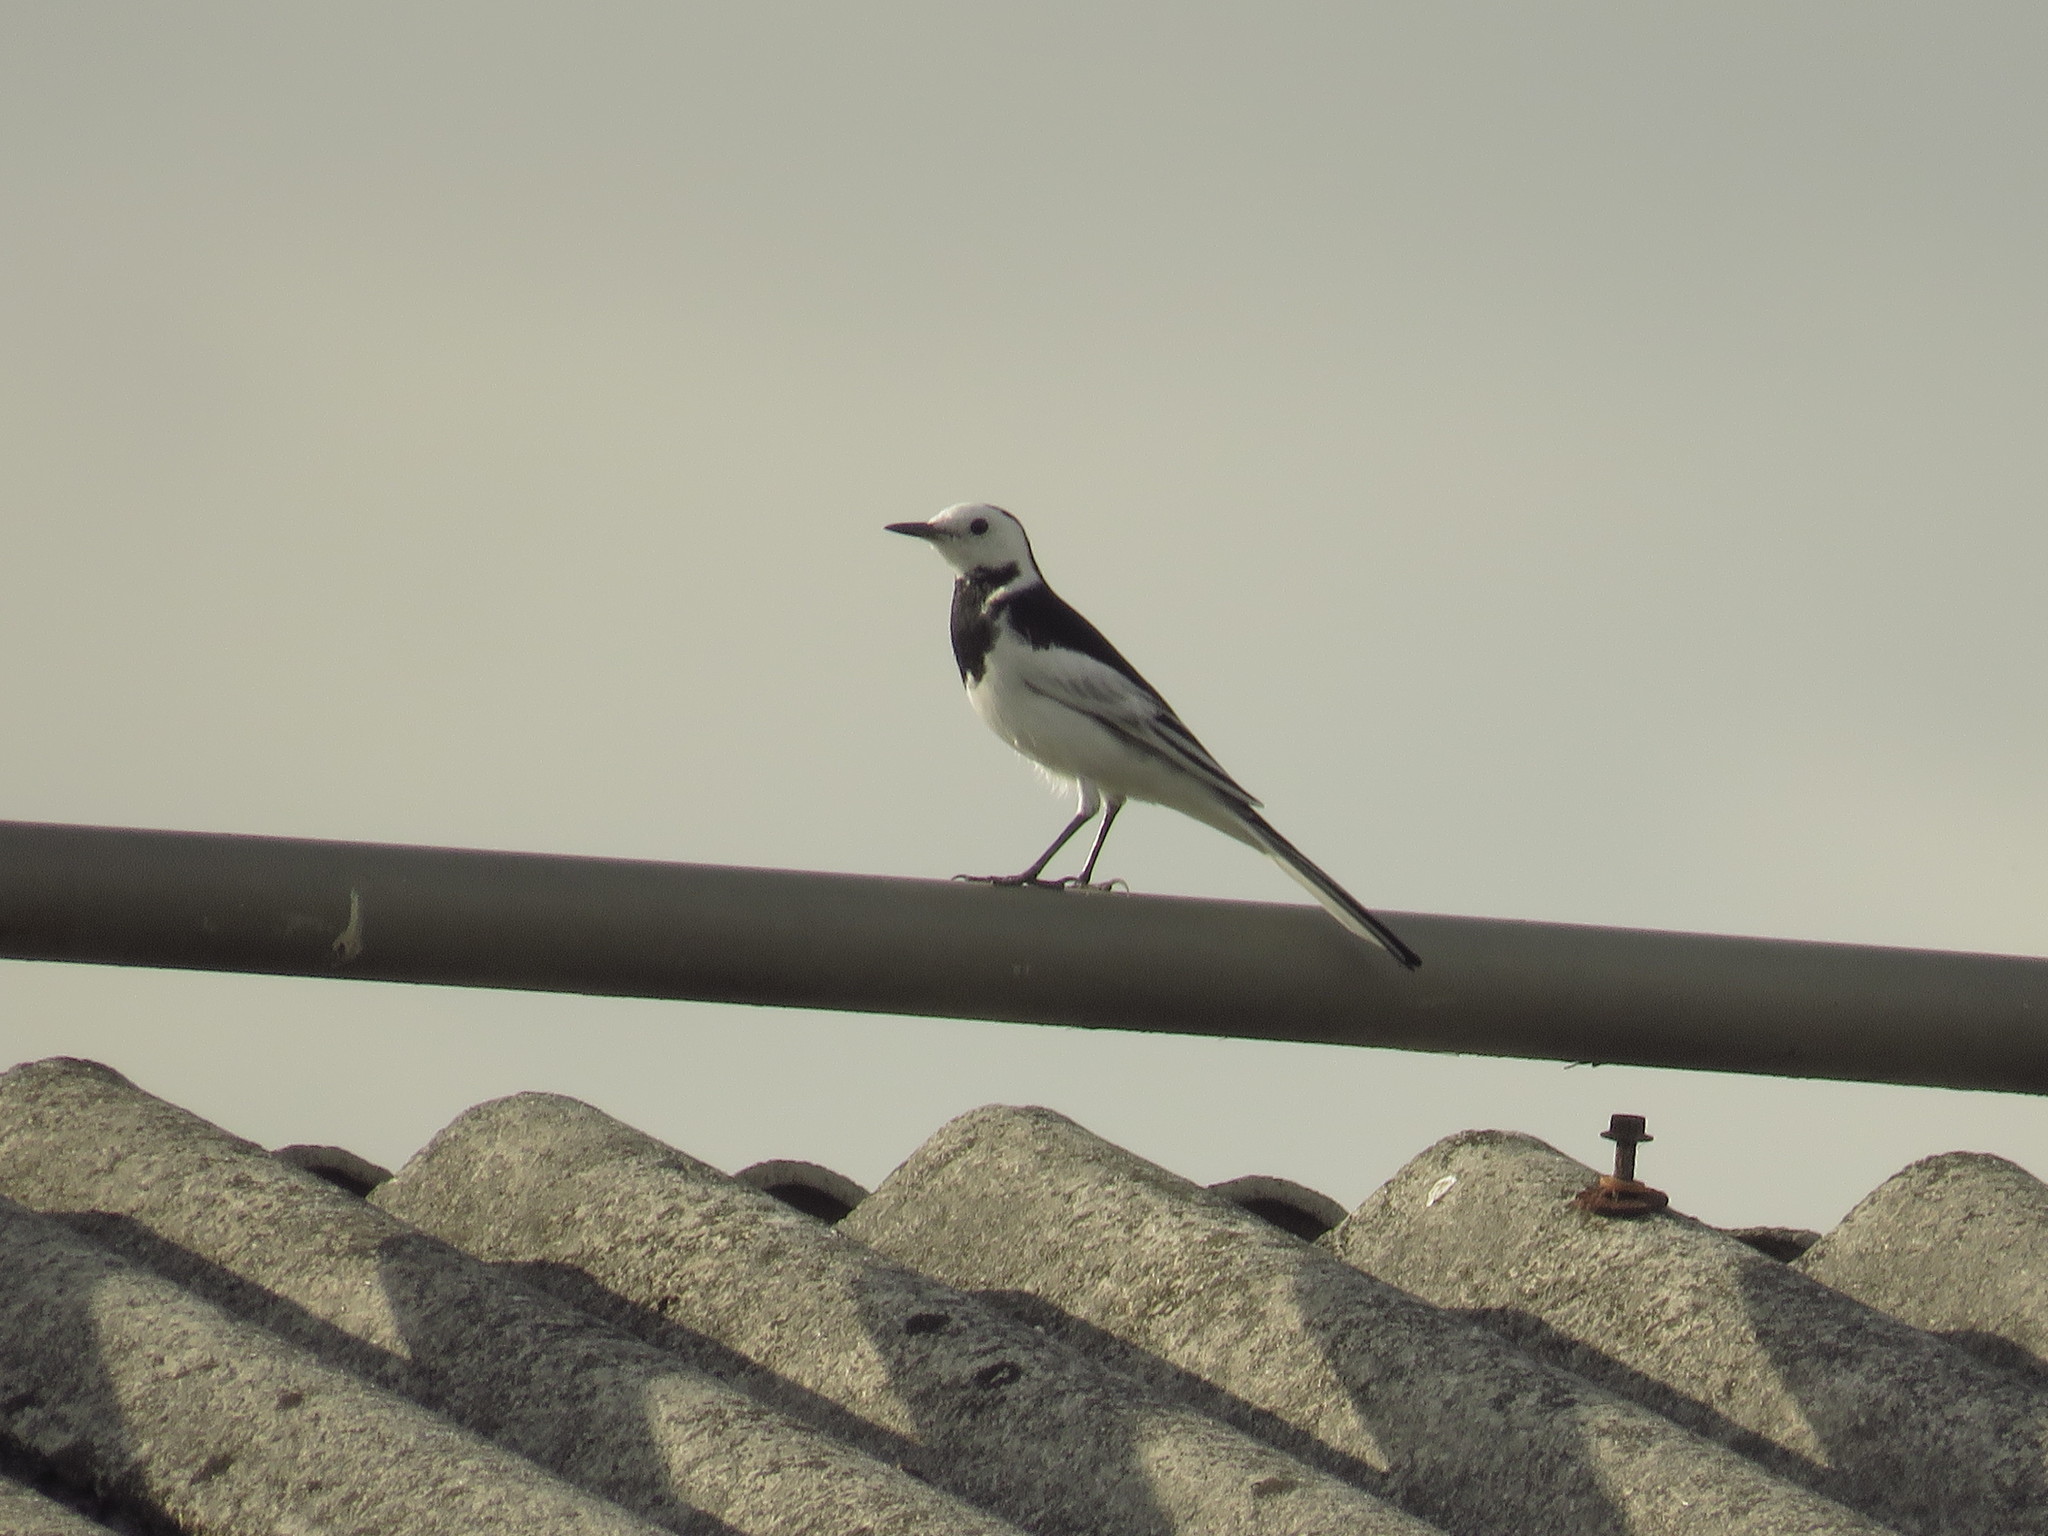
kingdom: Animalia
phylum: Chordata
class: Aves
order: Passeriformes
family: Motacillidae
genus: Motacilla
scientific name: Motacilla alba
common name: White wagtail
